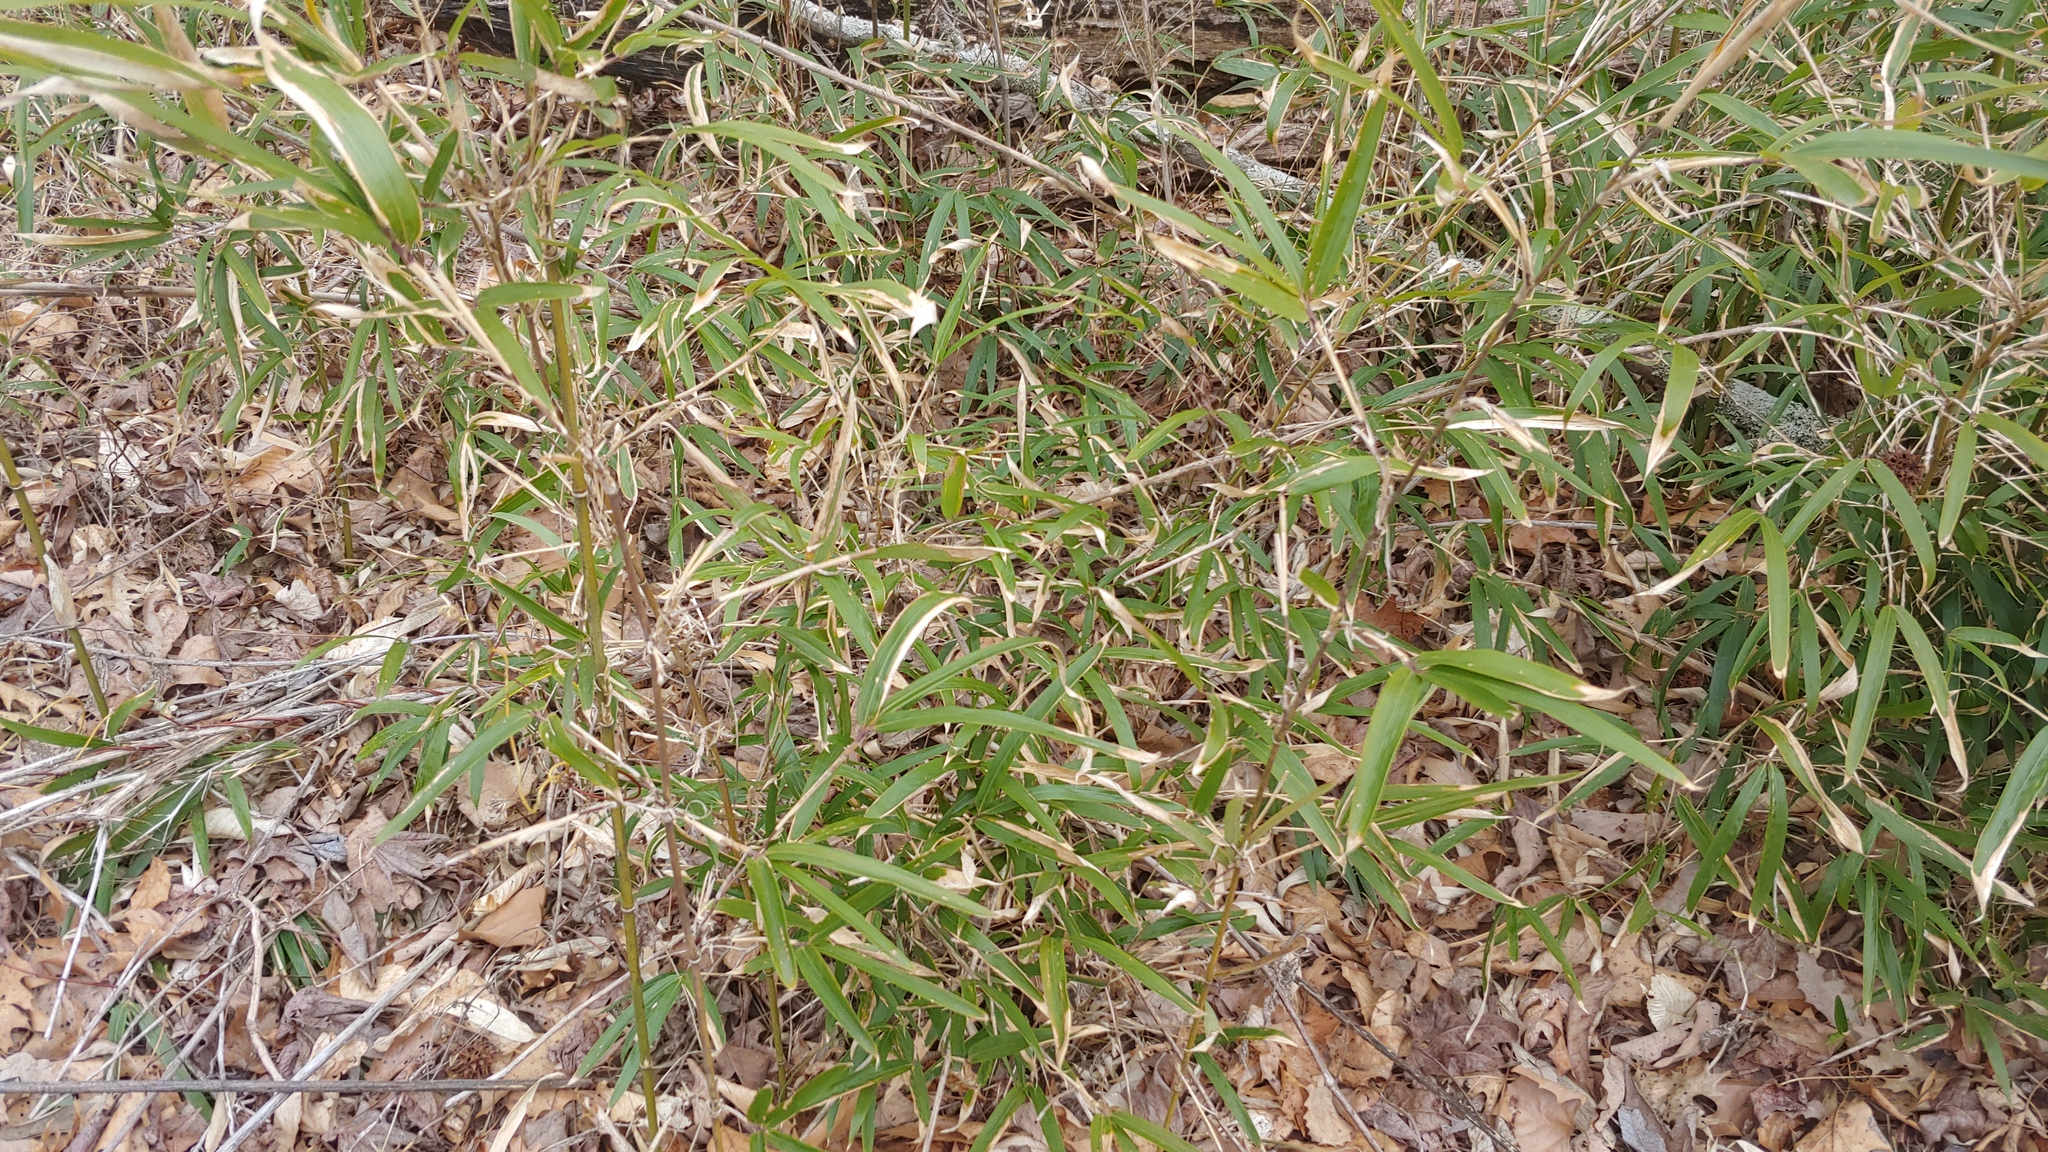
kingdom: Plantae
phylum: Tracheophyta
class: Liliopsida
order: Poales
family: Poaceae
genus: Arundinaria
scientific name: Arundinaria gigantea
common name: Giant cane
